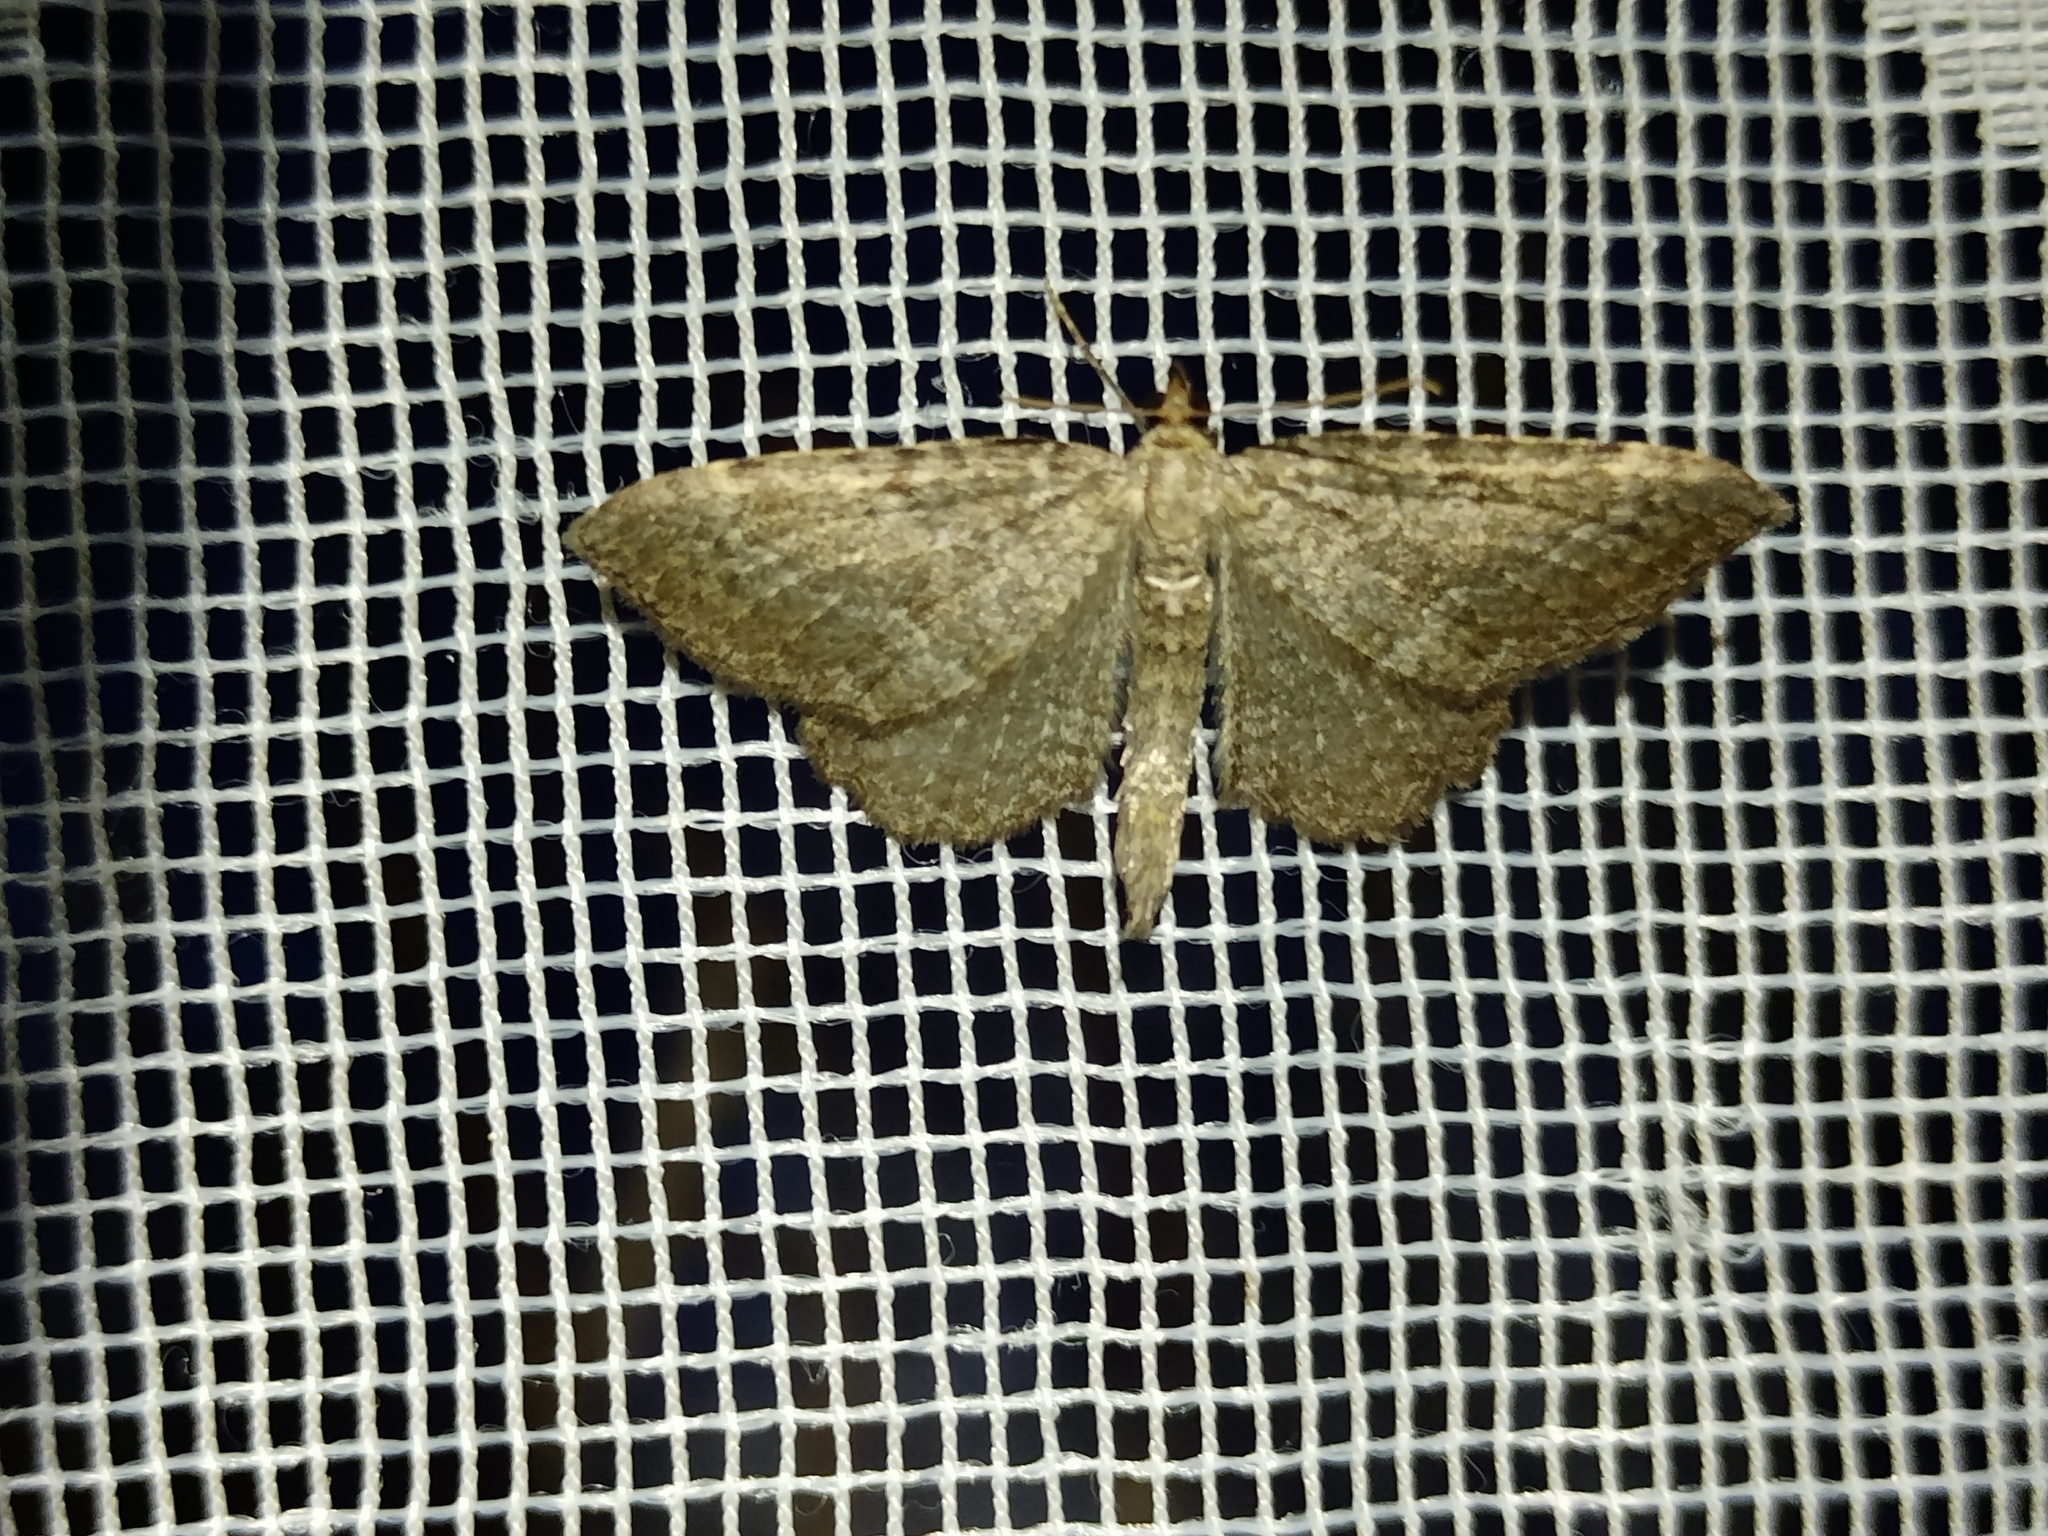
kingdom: Animalia
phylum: Arthropoda
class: Insecta
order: Lepidoptera
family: Geometridae
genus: Philereme
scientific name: Philereme vetulata
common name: Brown scallop
